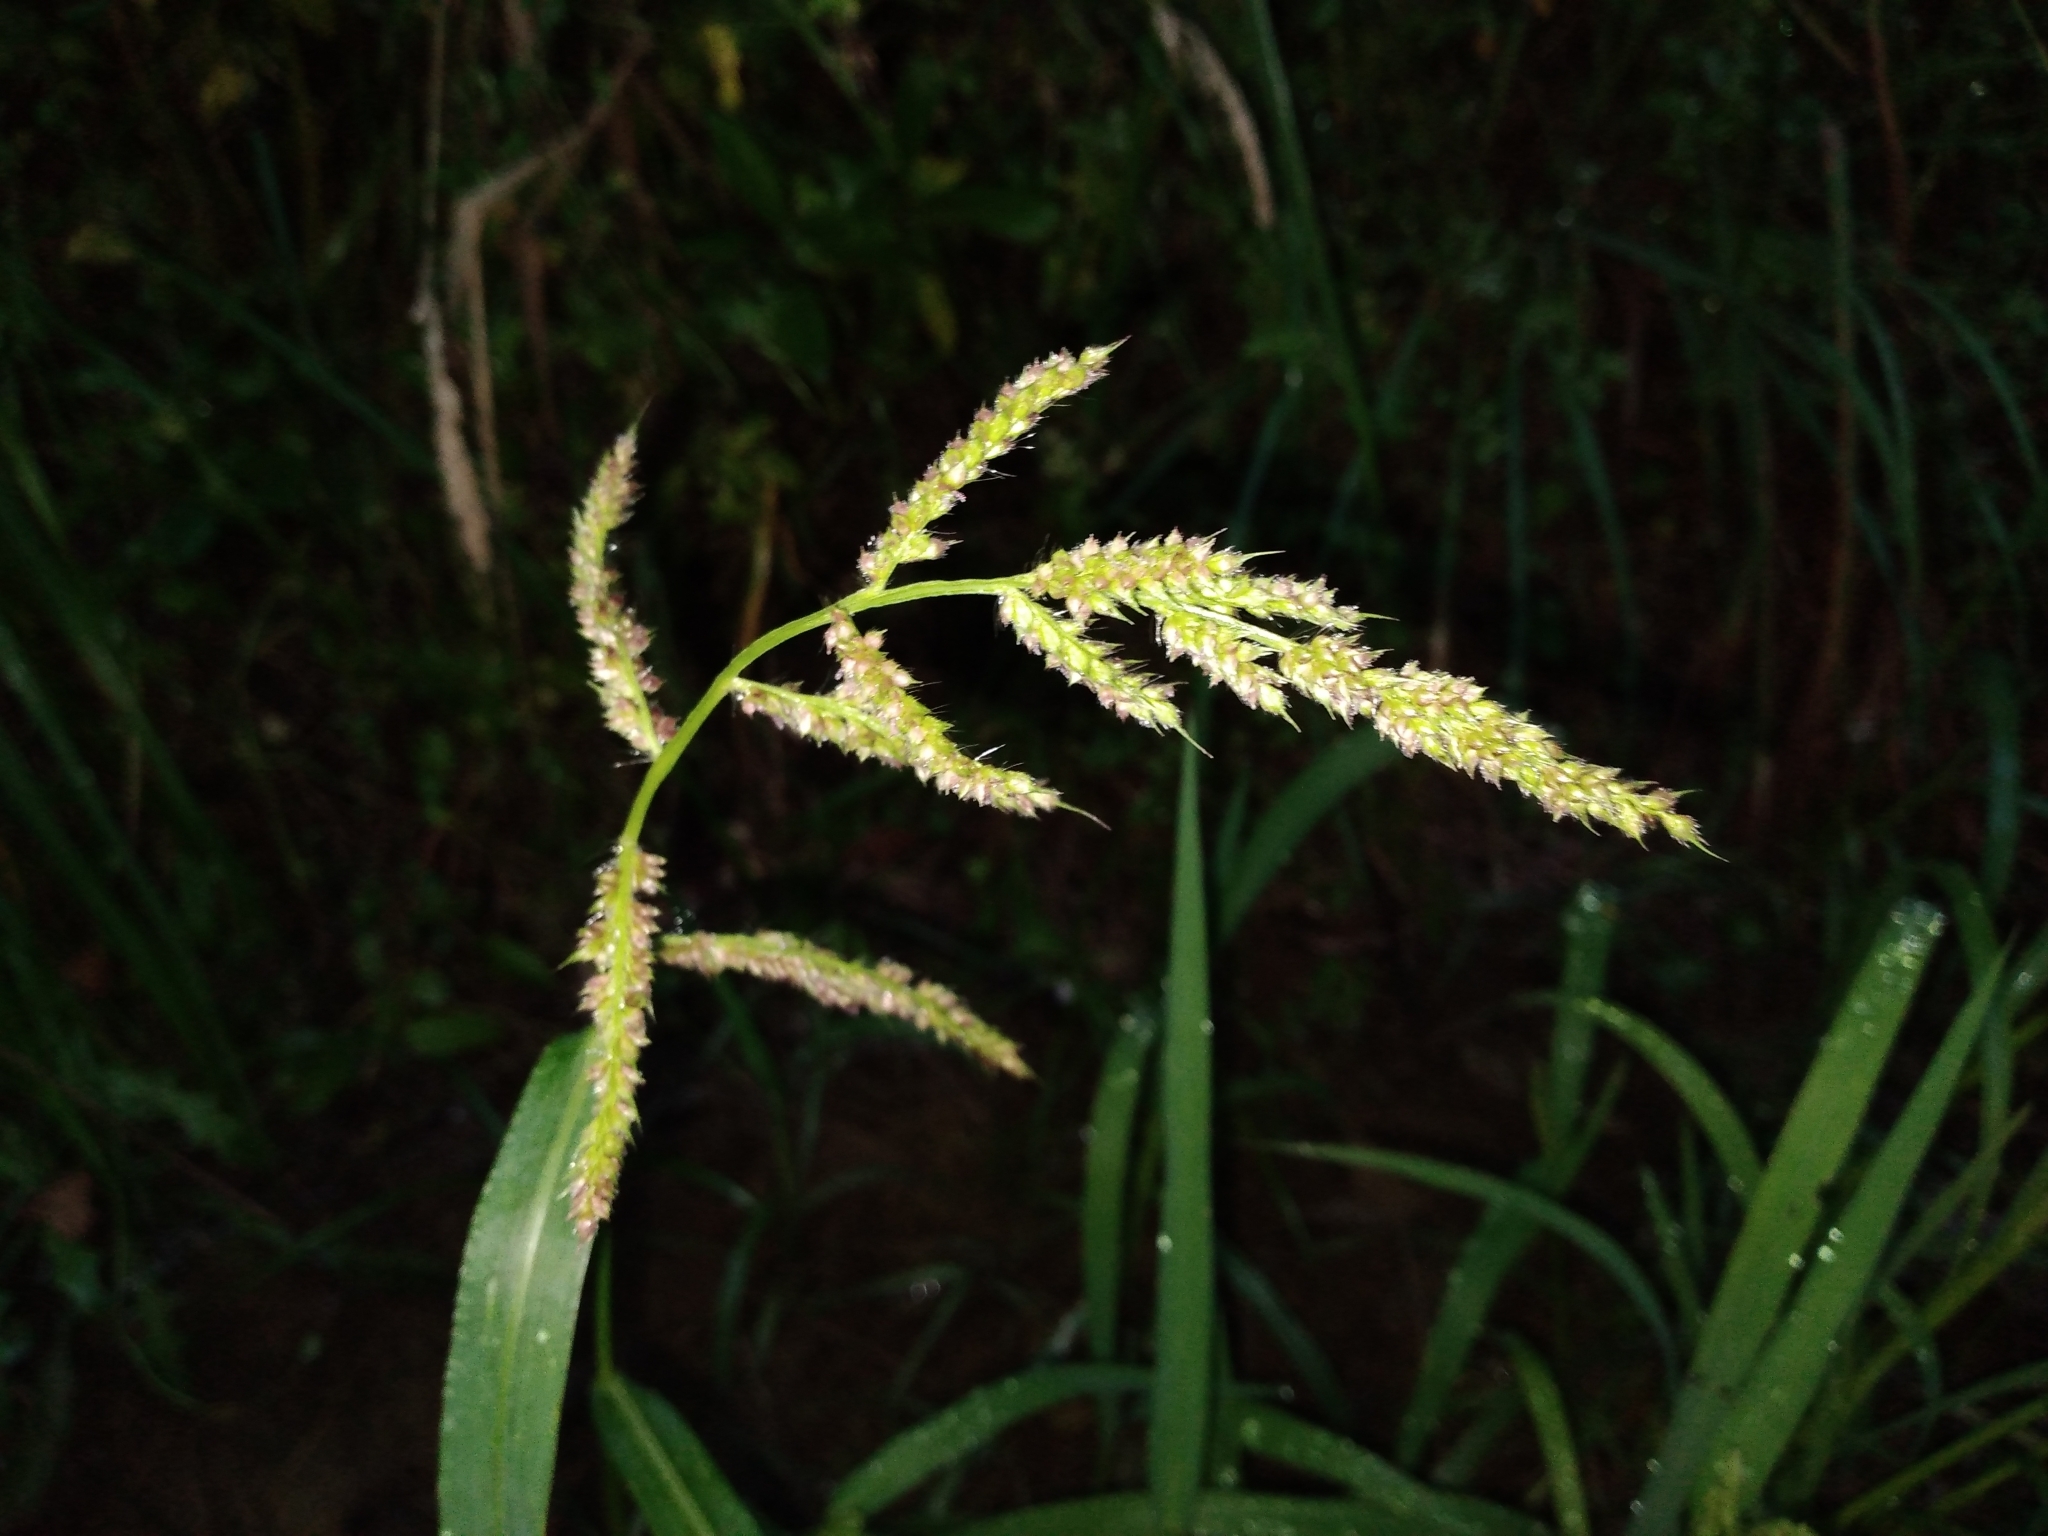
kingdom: Plantae
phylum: Tracheophyta
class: Liliopsida
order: Poales
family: Poaceae
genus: Echinochloa
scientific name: Echinochloa crus-galli
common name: Cockspur
